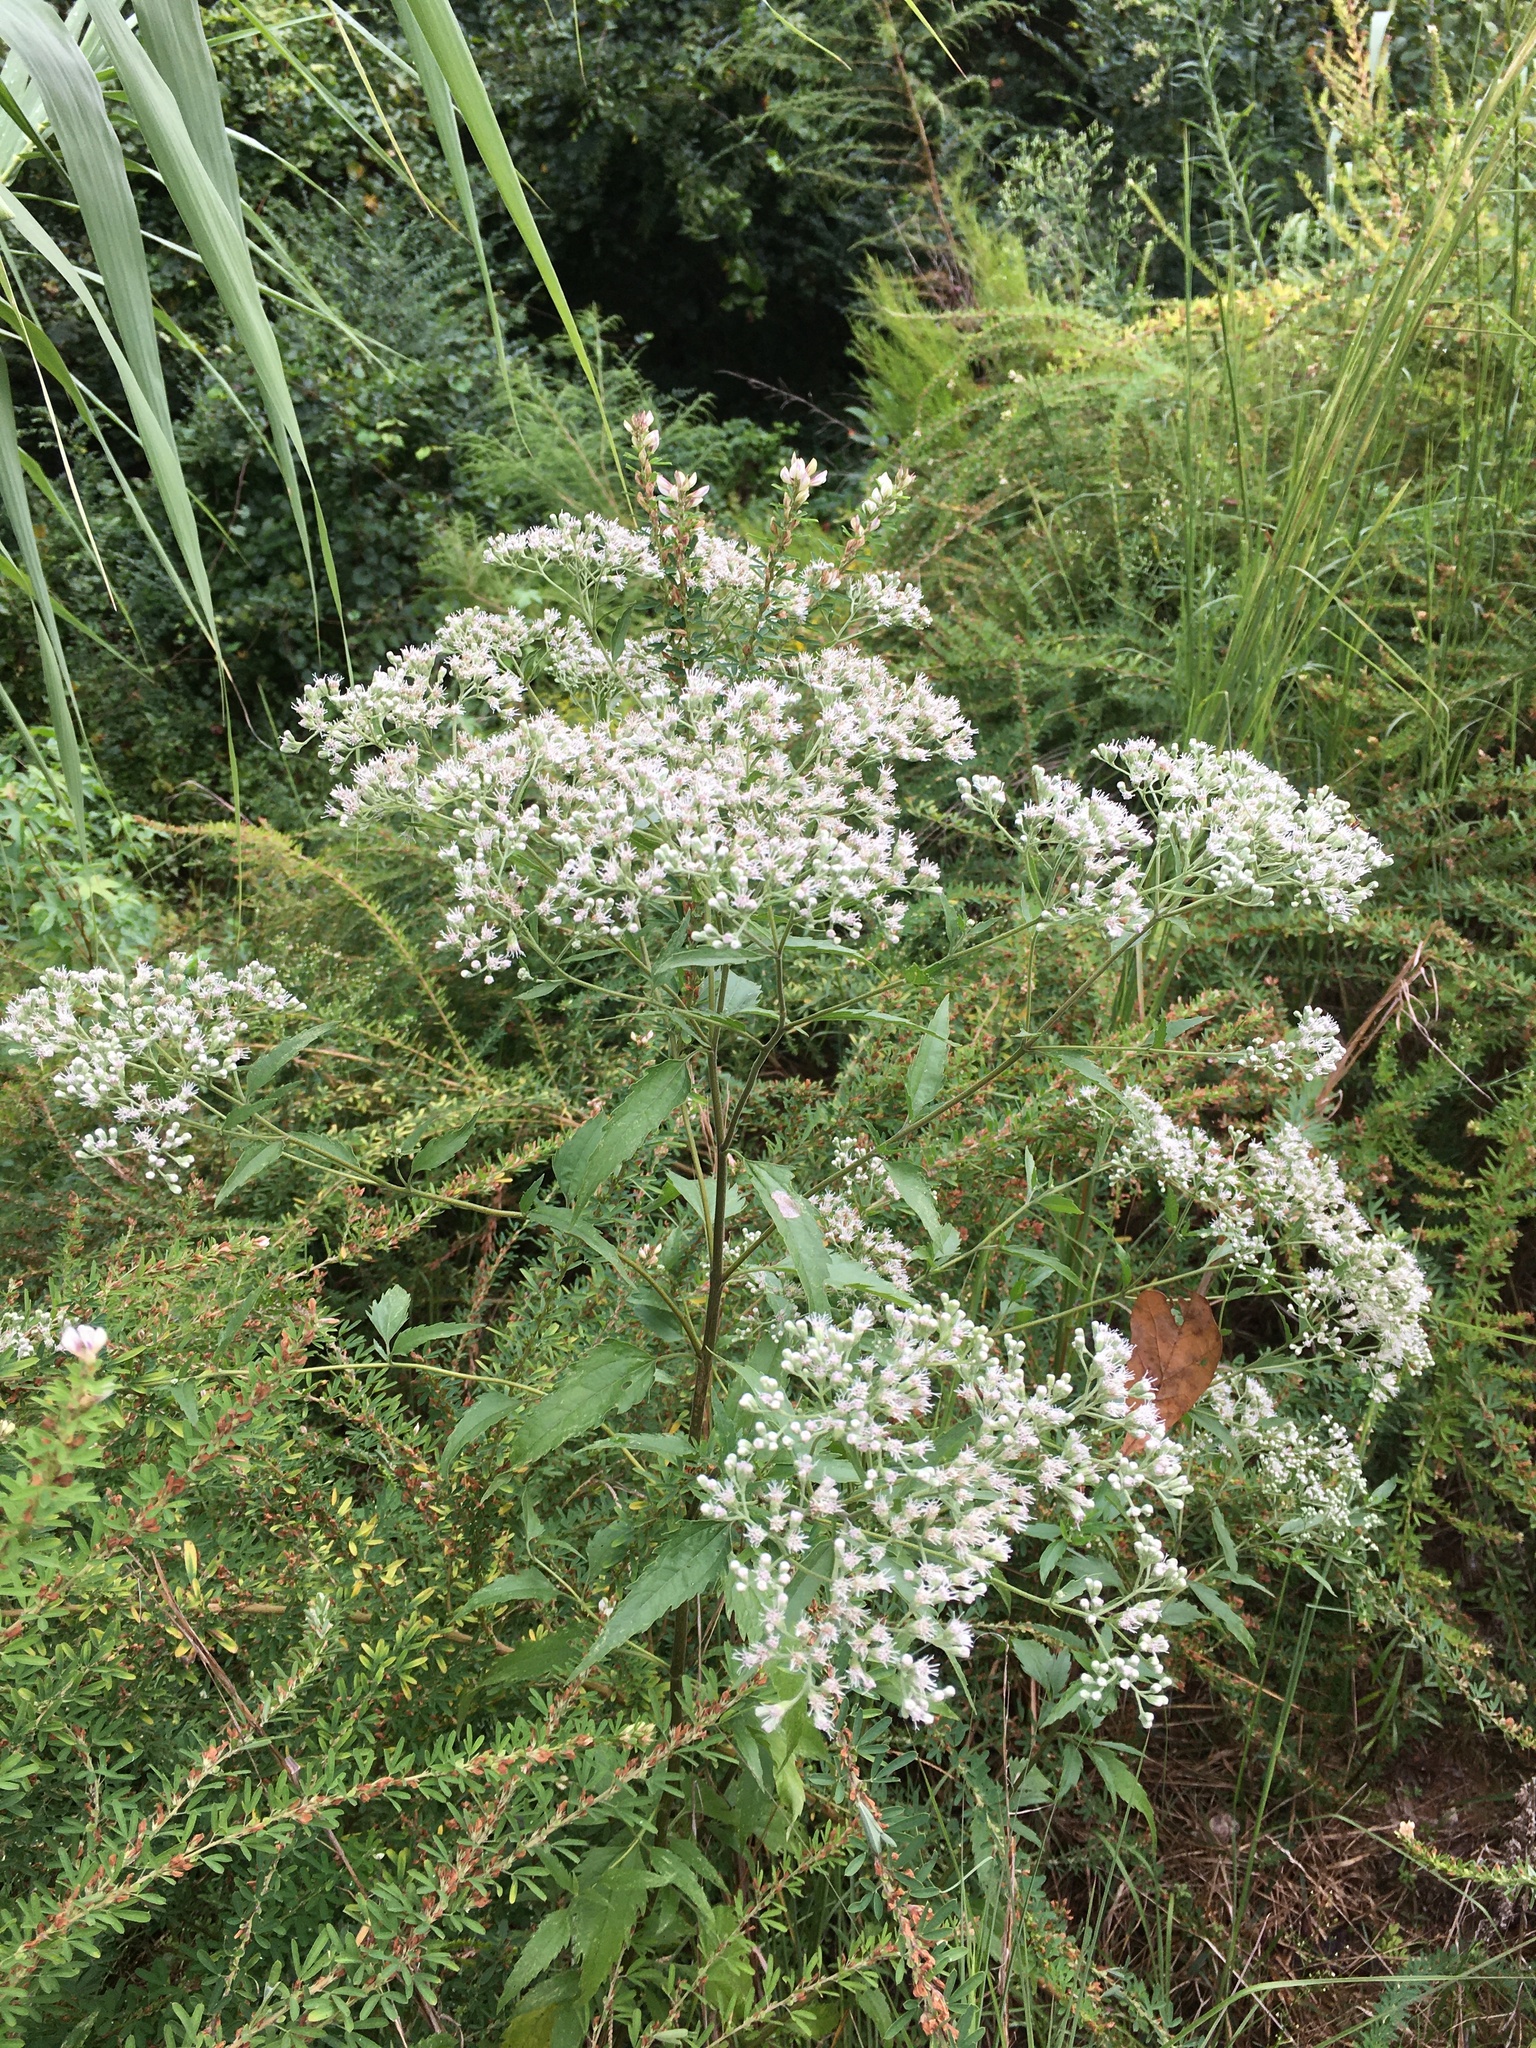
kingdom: Plantae
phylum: Tracheophyta
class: Magnoliopsida
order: Asterales
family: Asteraceae
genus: Eupatorium
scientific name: Eupatorium serotinum
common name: Late boneset
